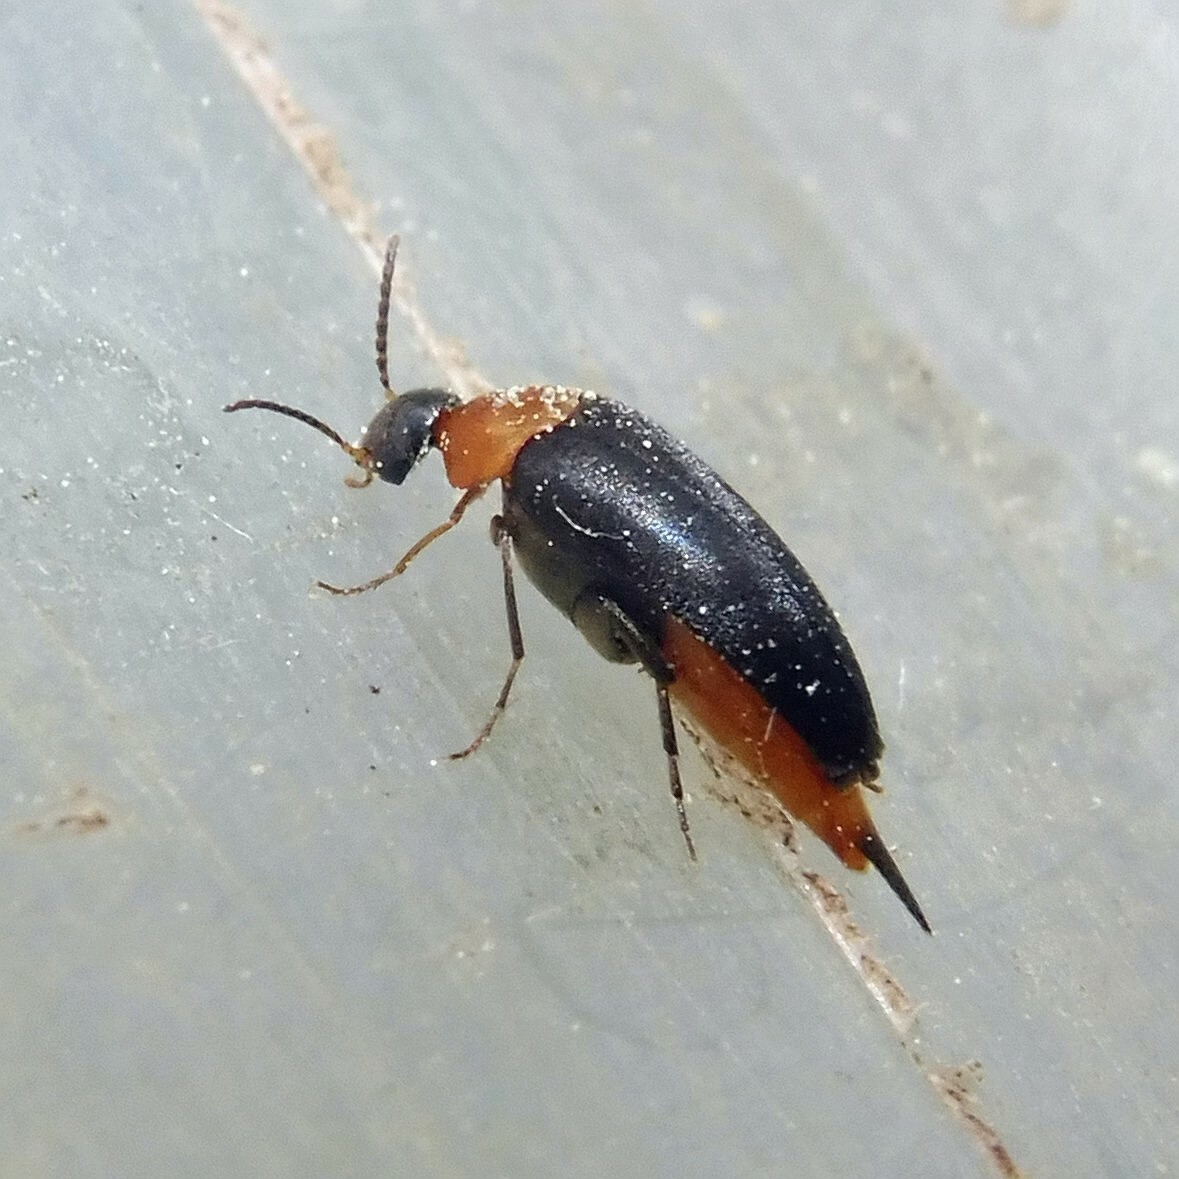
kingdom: Animalia
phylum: Arthropoda
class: Insecta
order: Coleoptera
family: Mordellidae
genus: Mordellochroa
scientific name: Mordellochroa abdominalis
